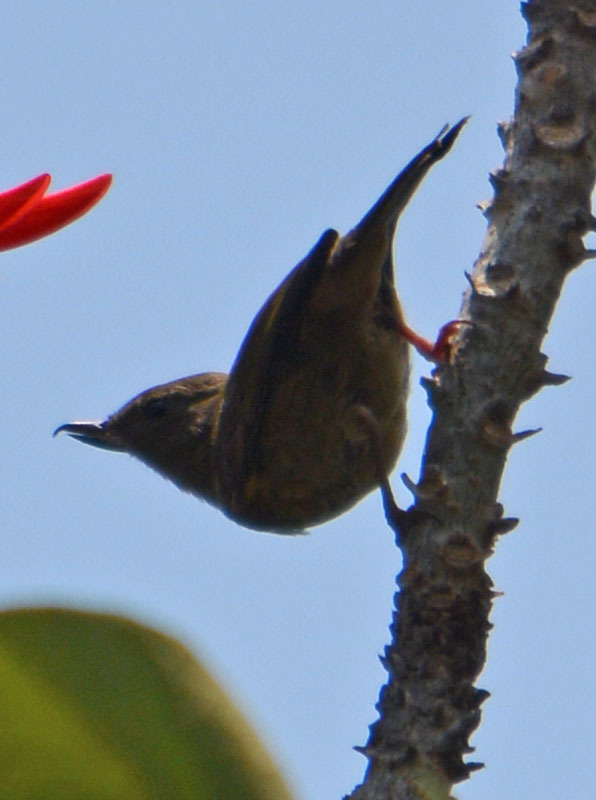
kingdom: Animalia
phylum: Chordata
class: Aves
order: Passeriformes
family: Thraupidae
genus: Diglossa
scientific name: Diglossa baritula
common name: Cinnamon-bellied flowerpiercer
